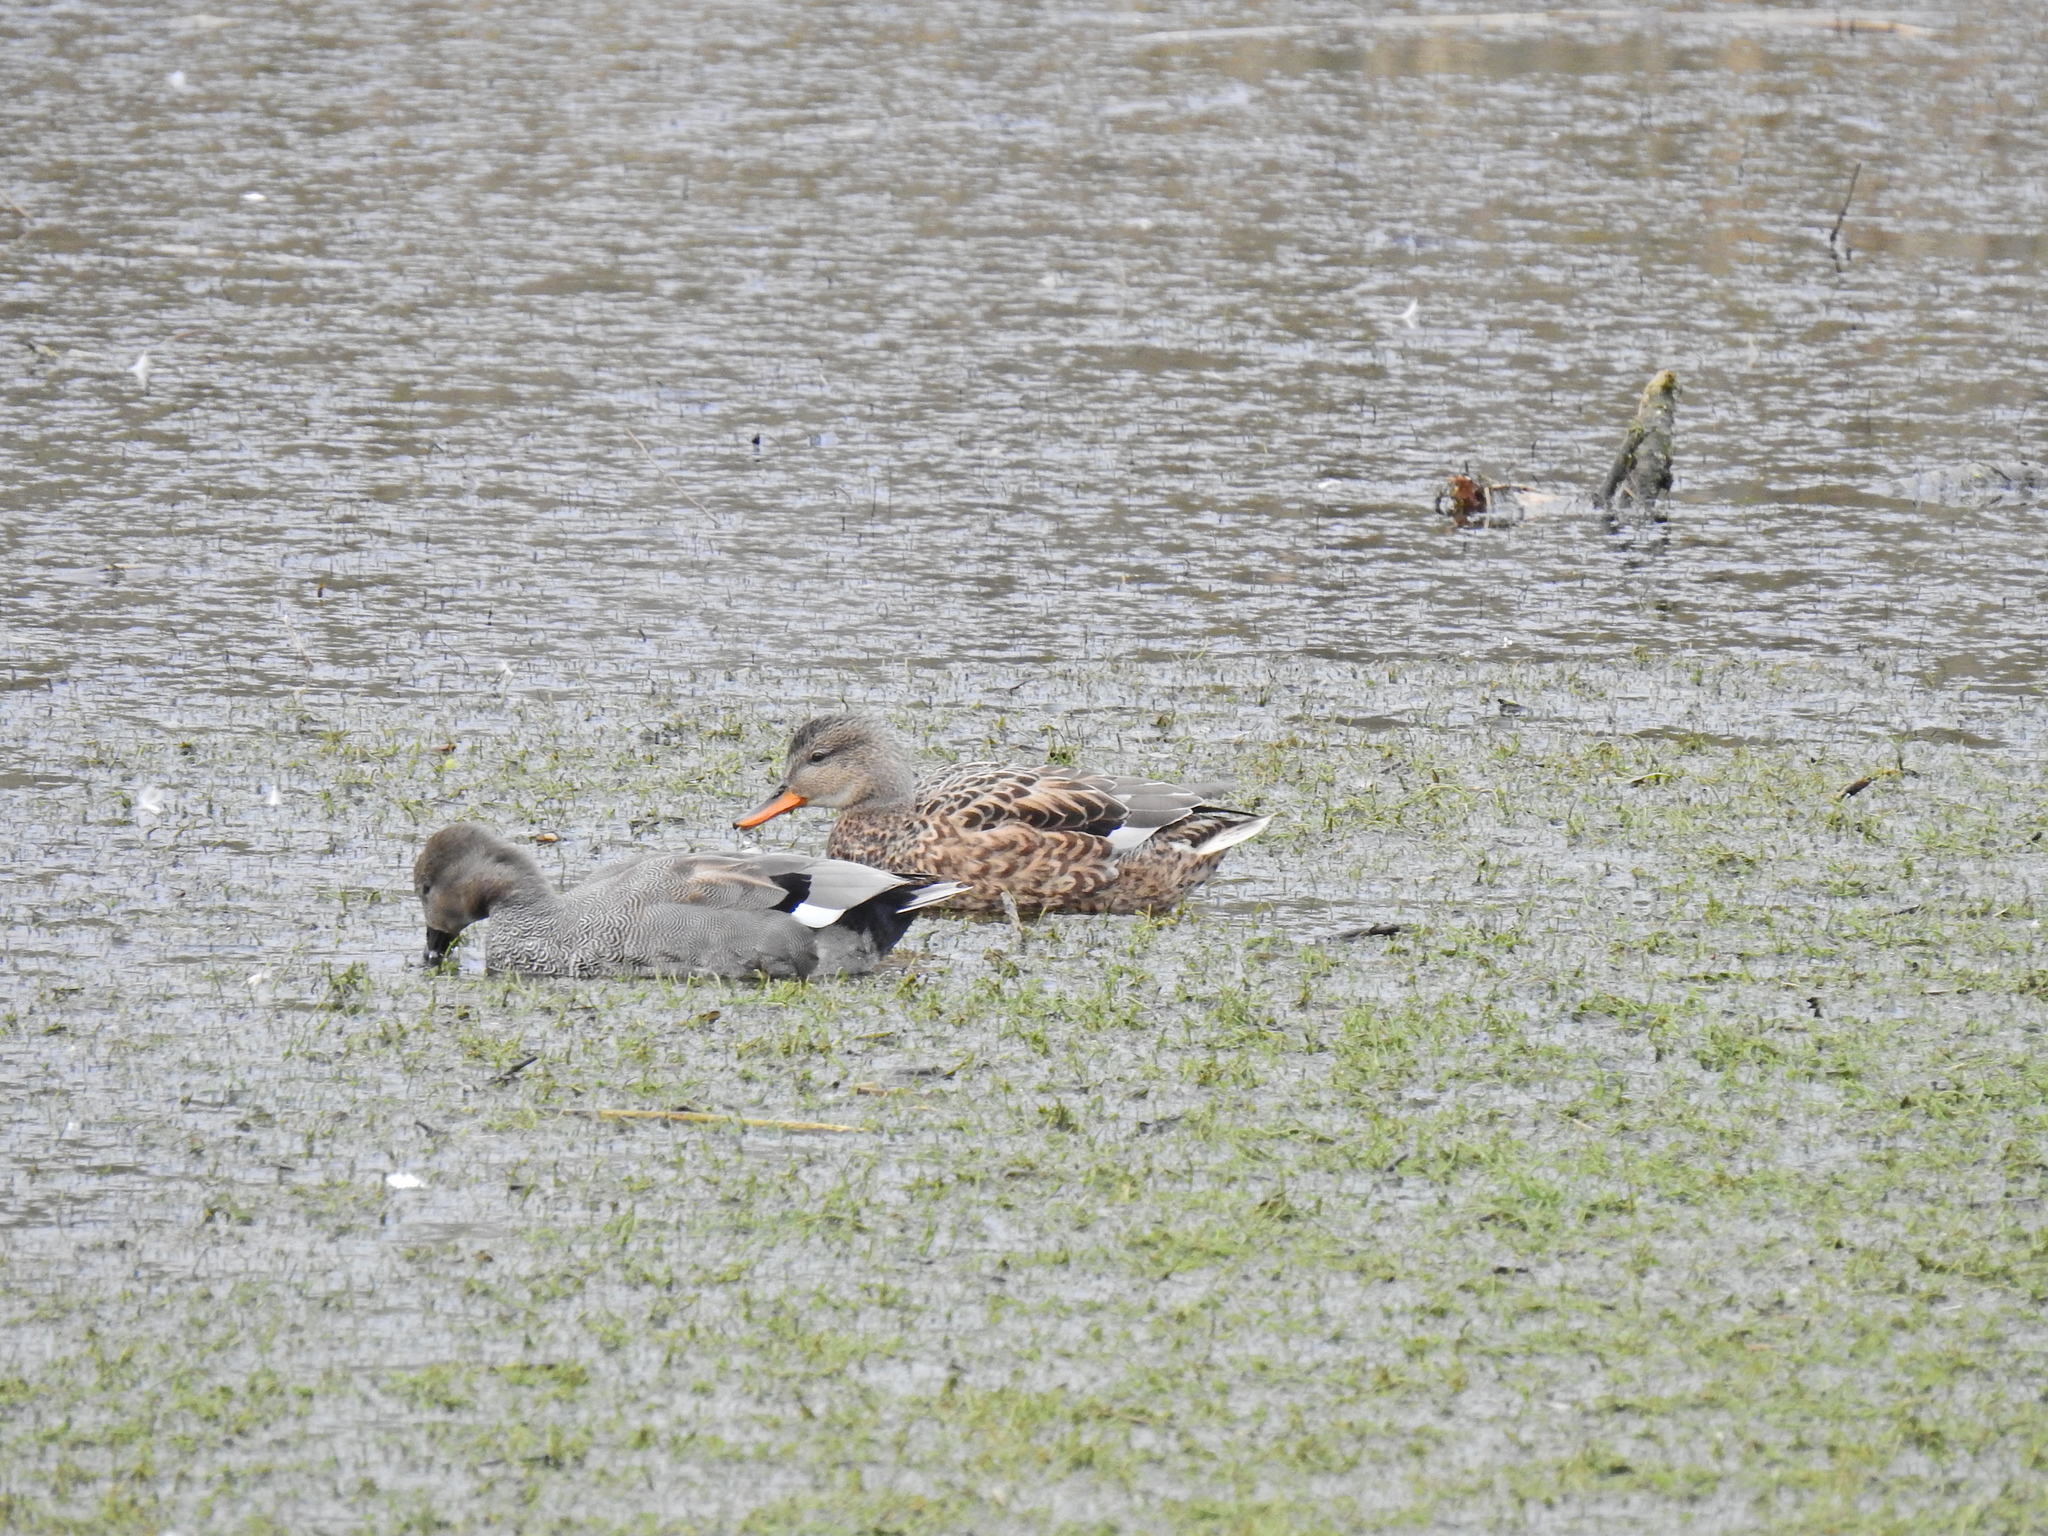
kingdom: Animalia
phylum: Chordata
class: Aves
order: Anseriformes
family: Anatidae
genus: Mareca
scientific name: Mareca strepera
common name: Gadwall
